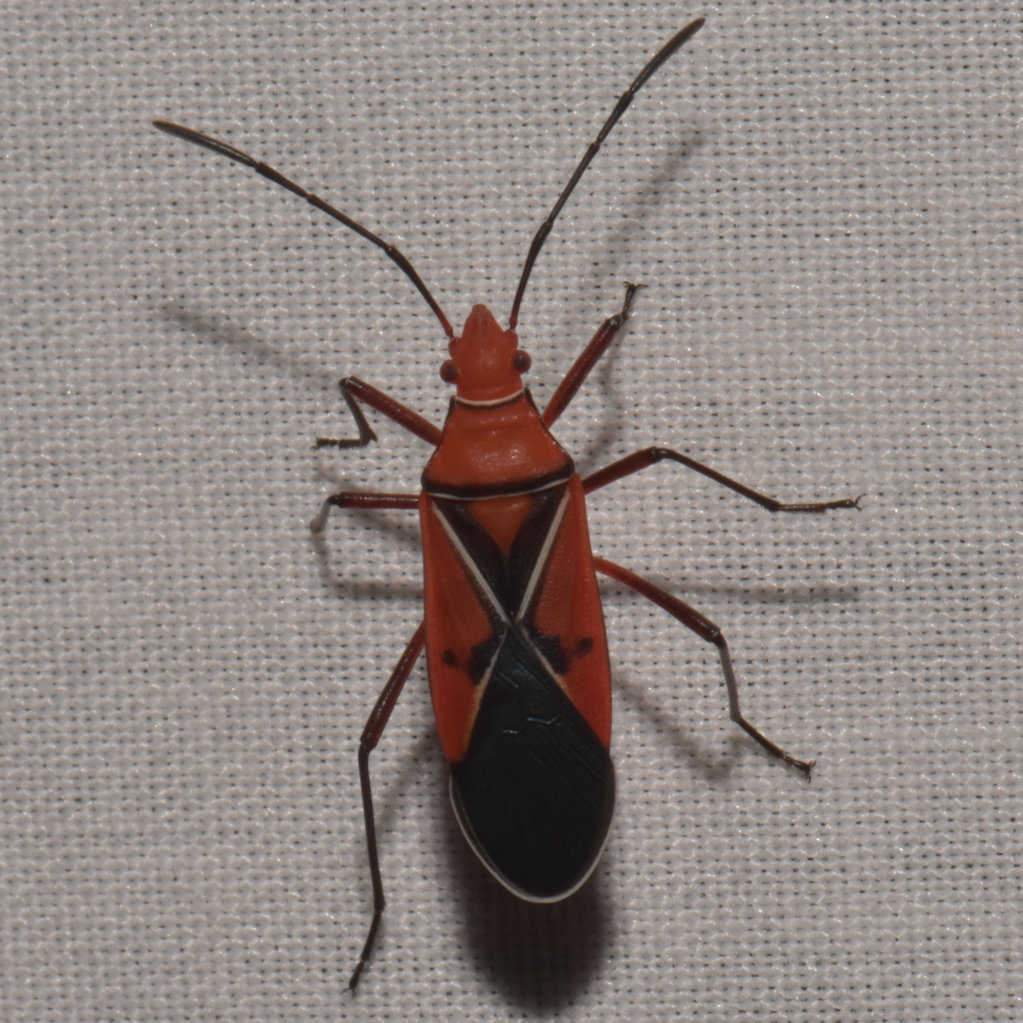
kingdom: Animalia
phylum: Arthropoda
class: Insecta
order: Hemiptera
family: Pyrrhocoridae
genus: Dysdercus
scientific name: Dysdercus andreae
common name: St. andrew's cotton stainer
